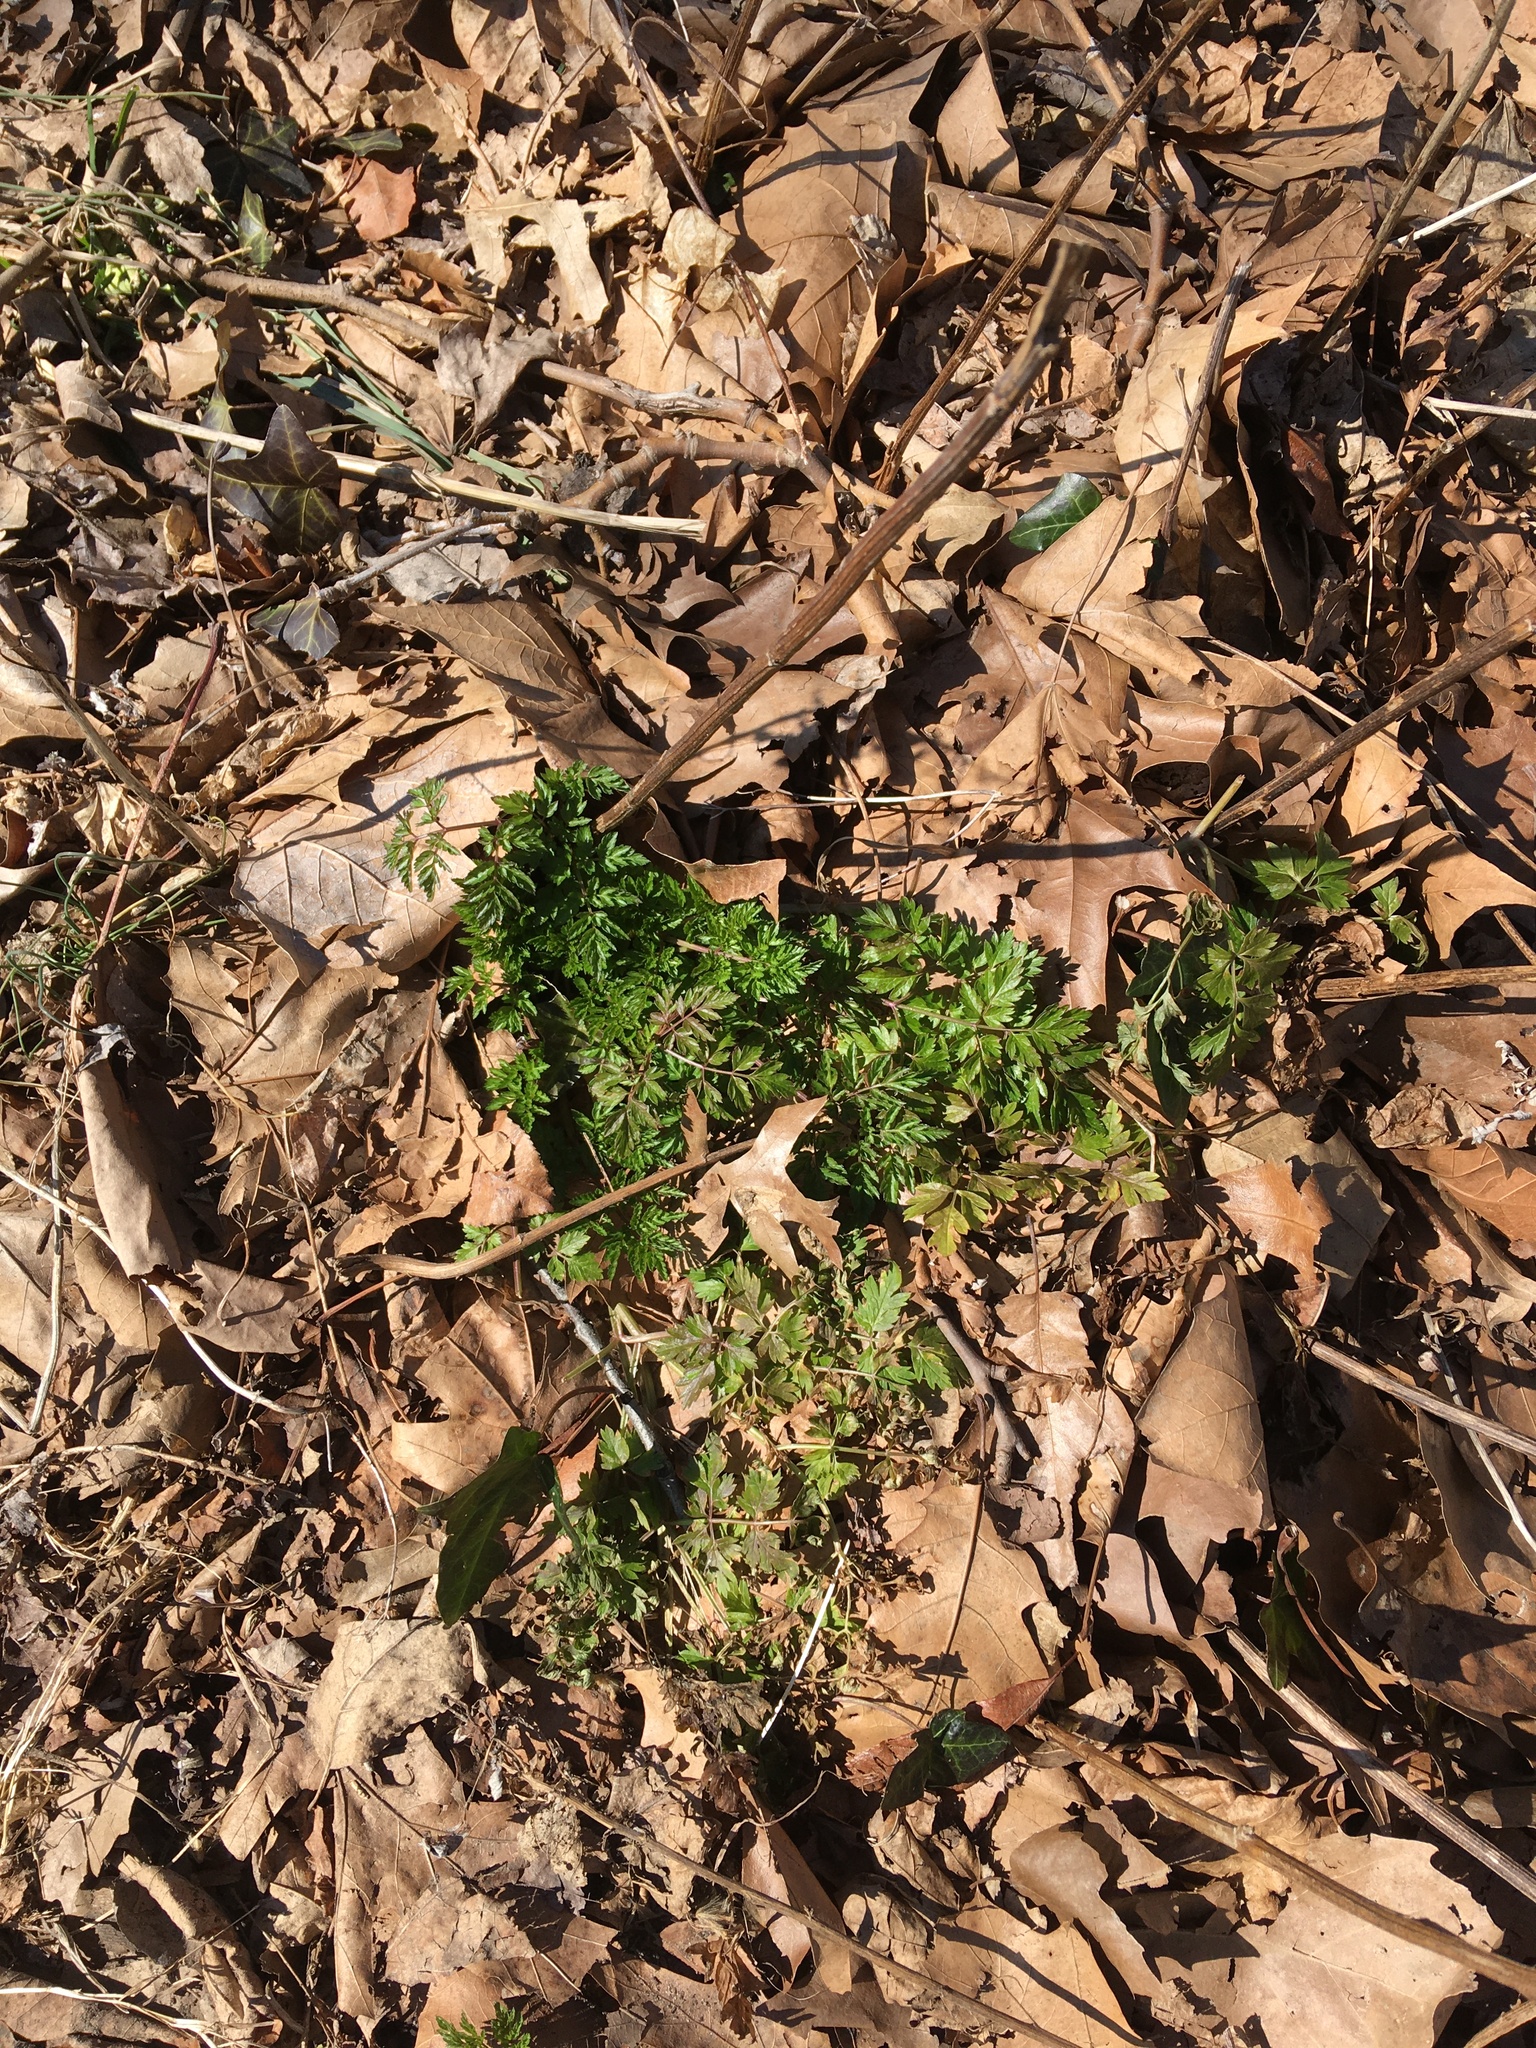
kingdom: Plantae
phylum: Tracheophyta
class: Magnoliopsida
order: Apiales
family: Apiaceae
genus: Anthriscus
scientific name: Anthriscus sylvestris
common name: Cow parsley
